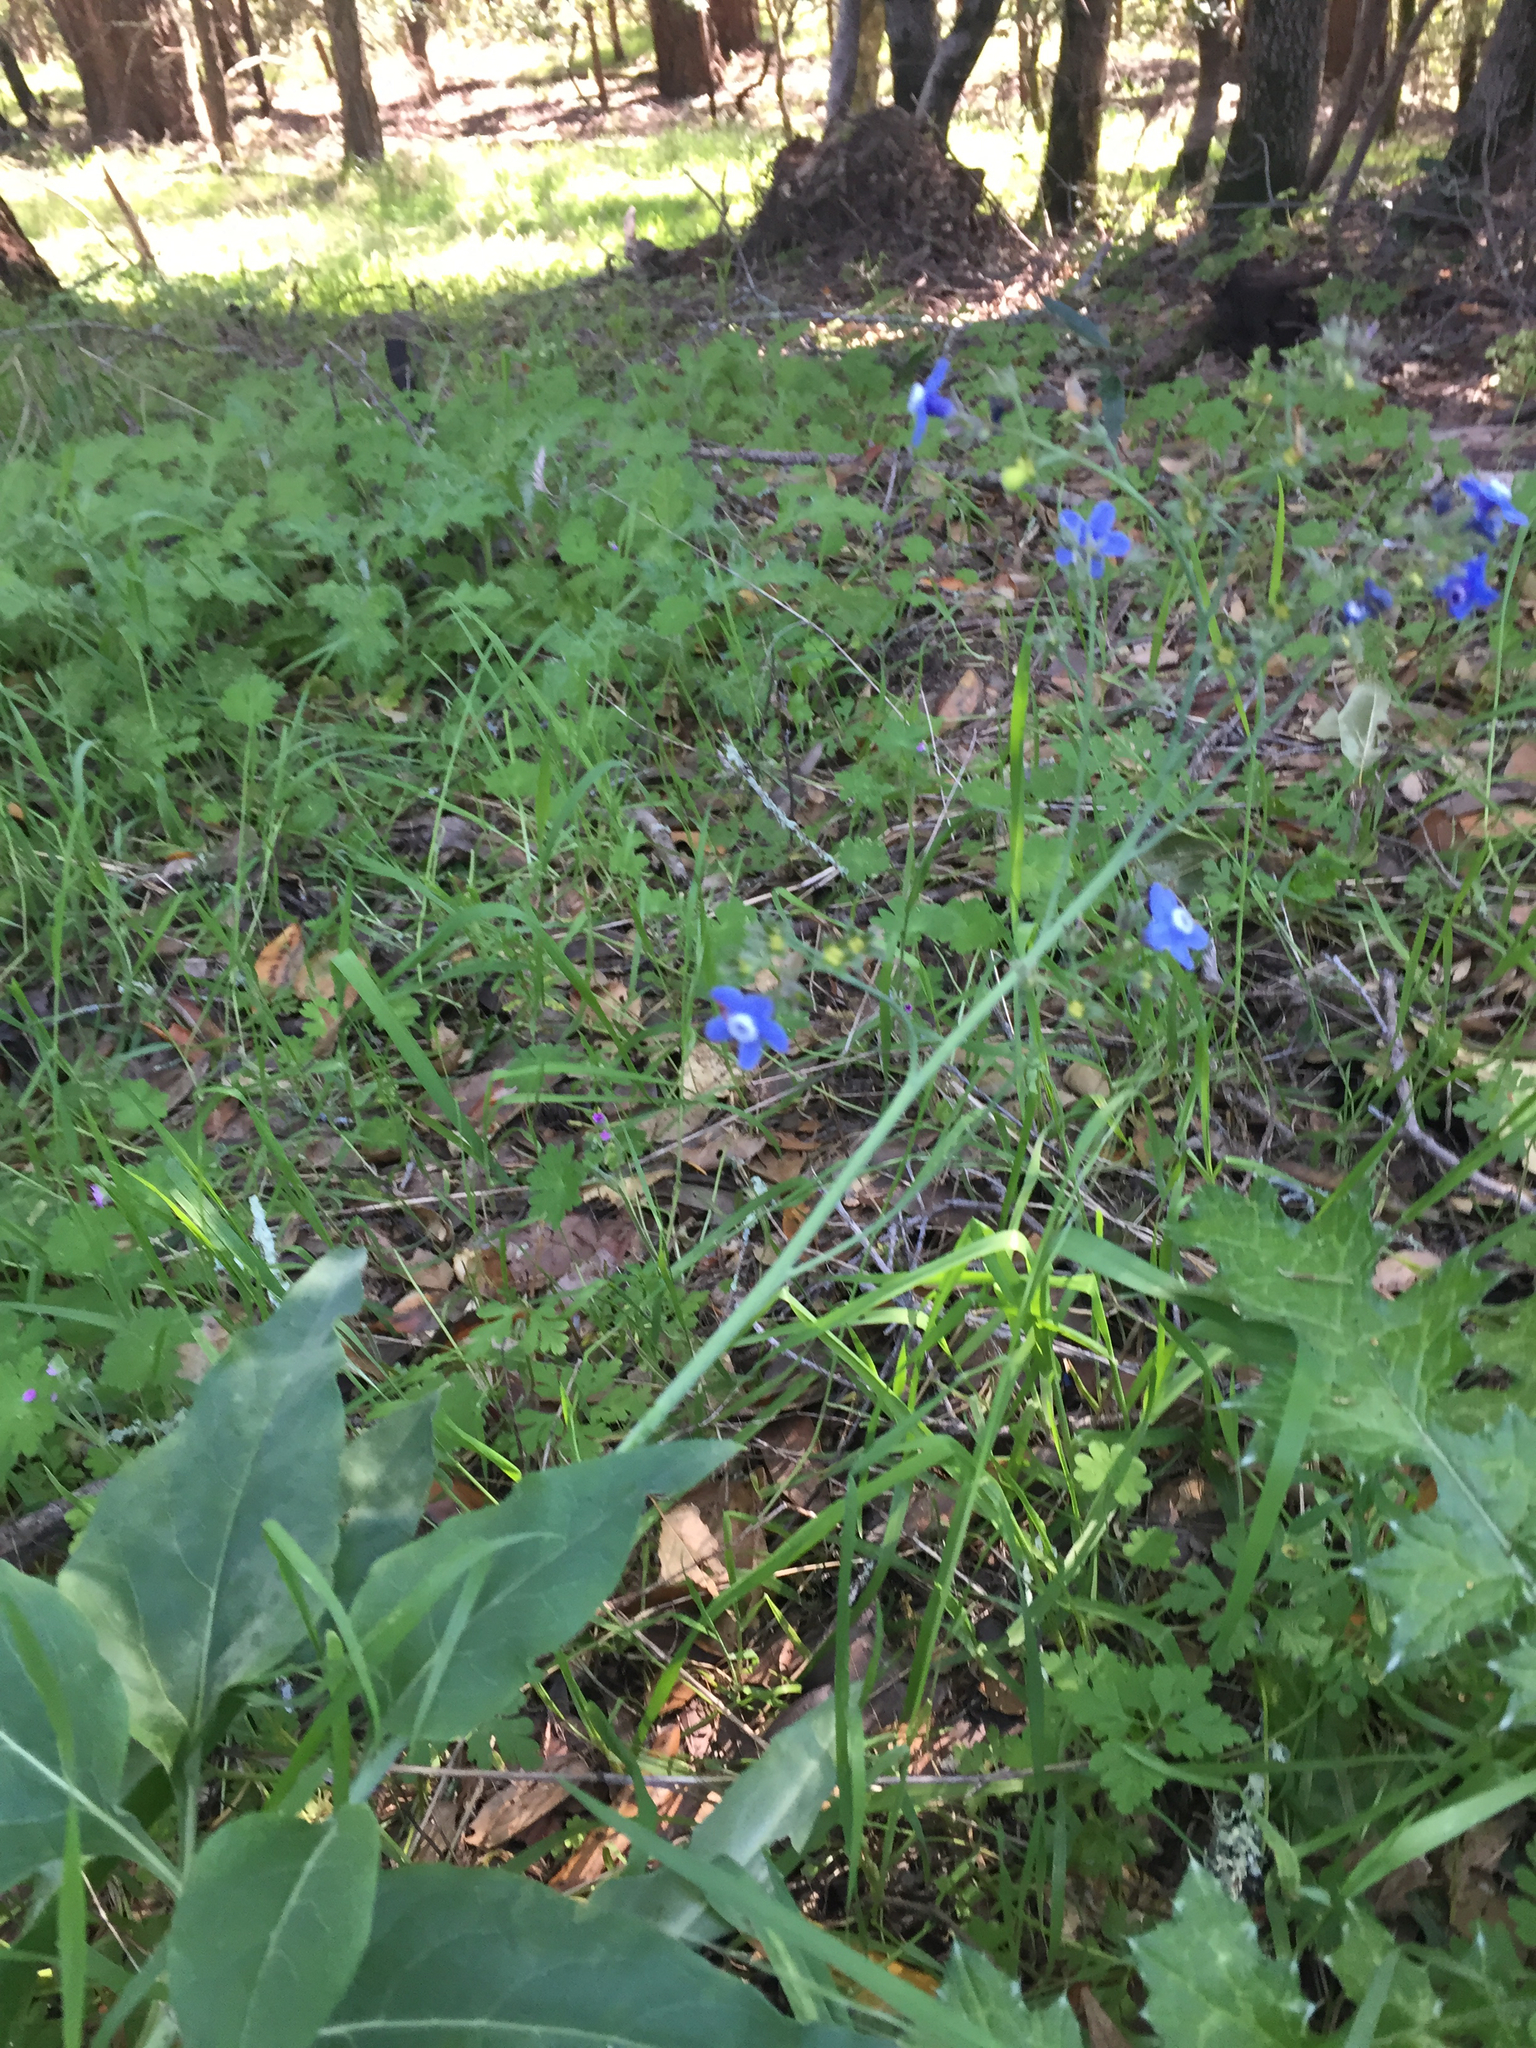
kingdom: Plantae
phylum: Tracheophyta
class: Magnoliopsida
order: Boraginales
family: Boraginaceae
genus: Adelinia
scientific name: Adelinia grande
